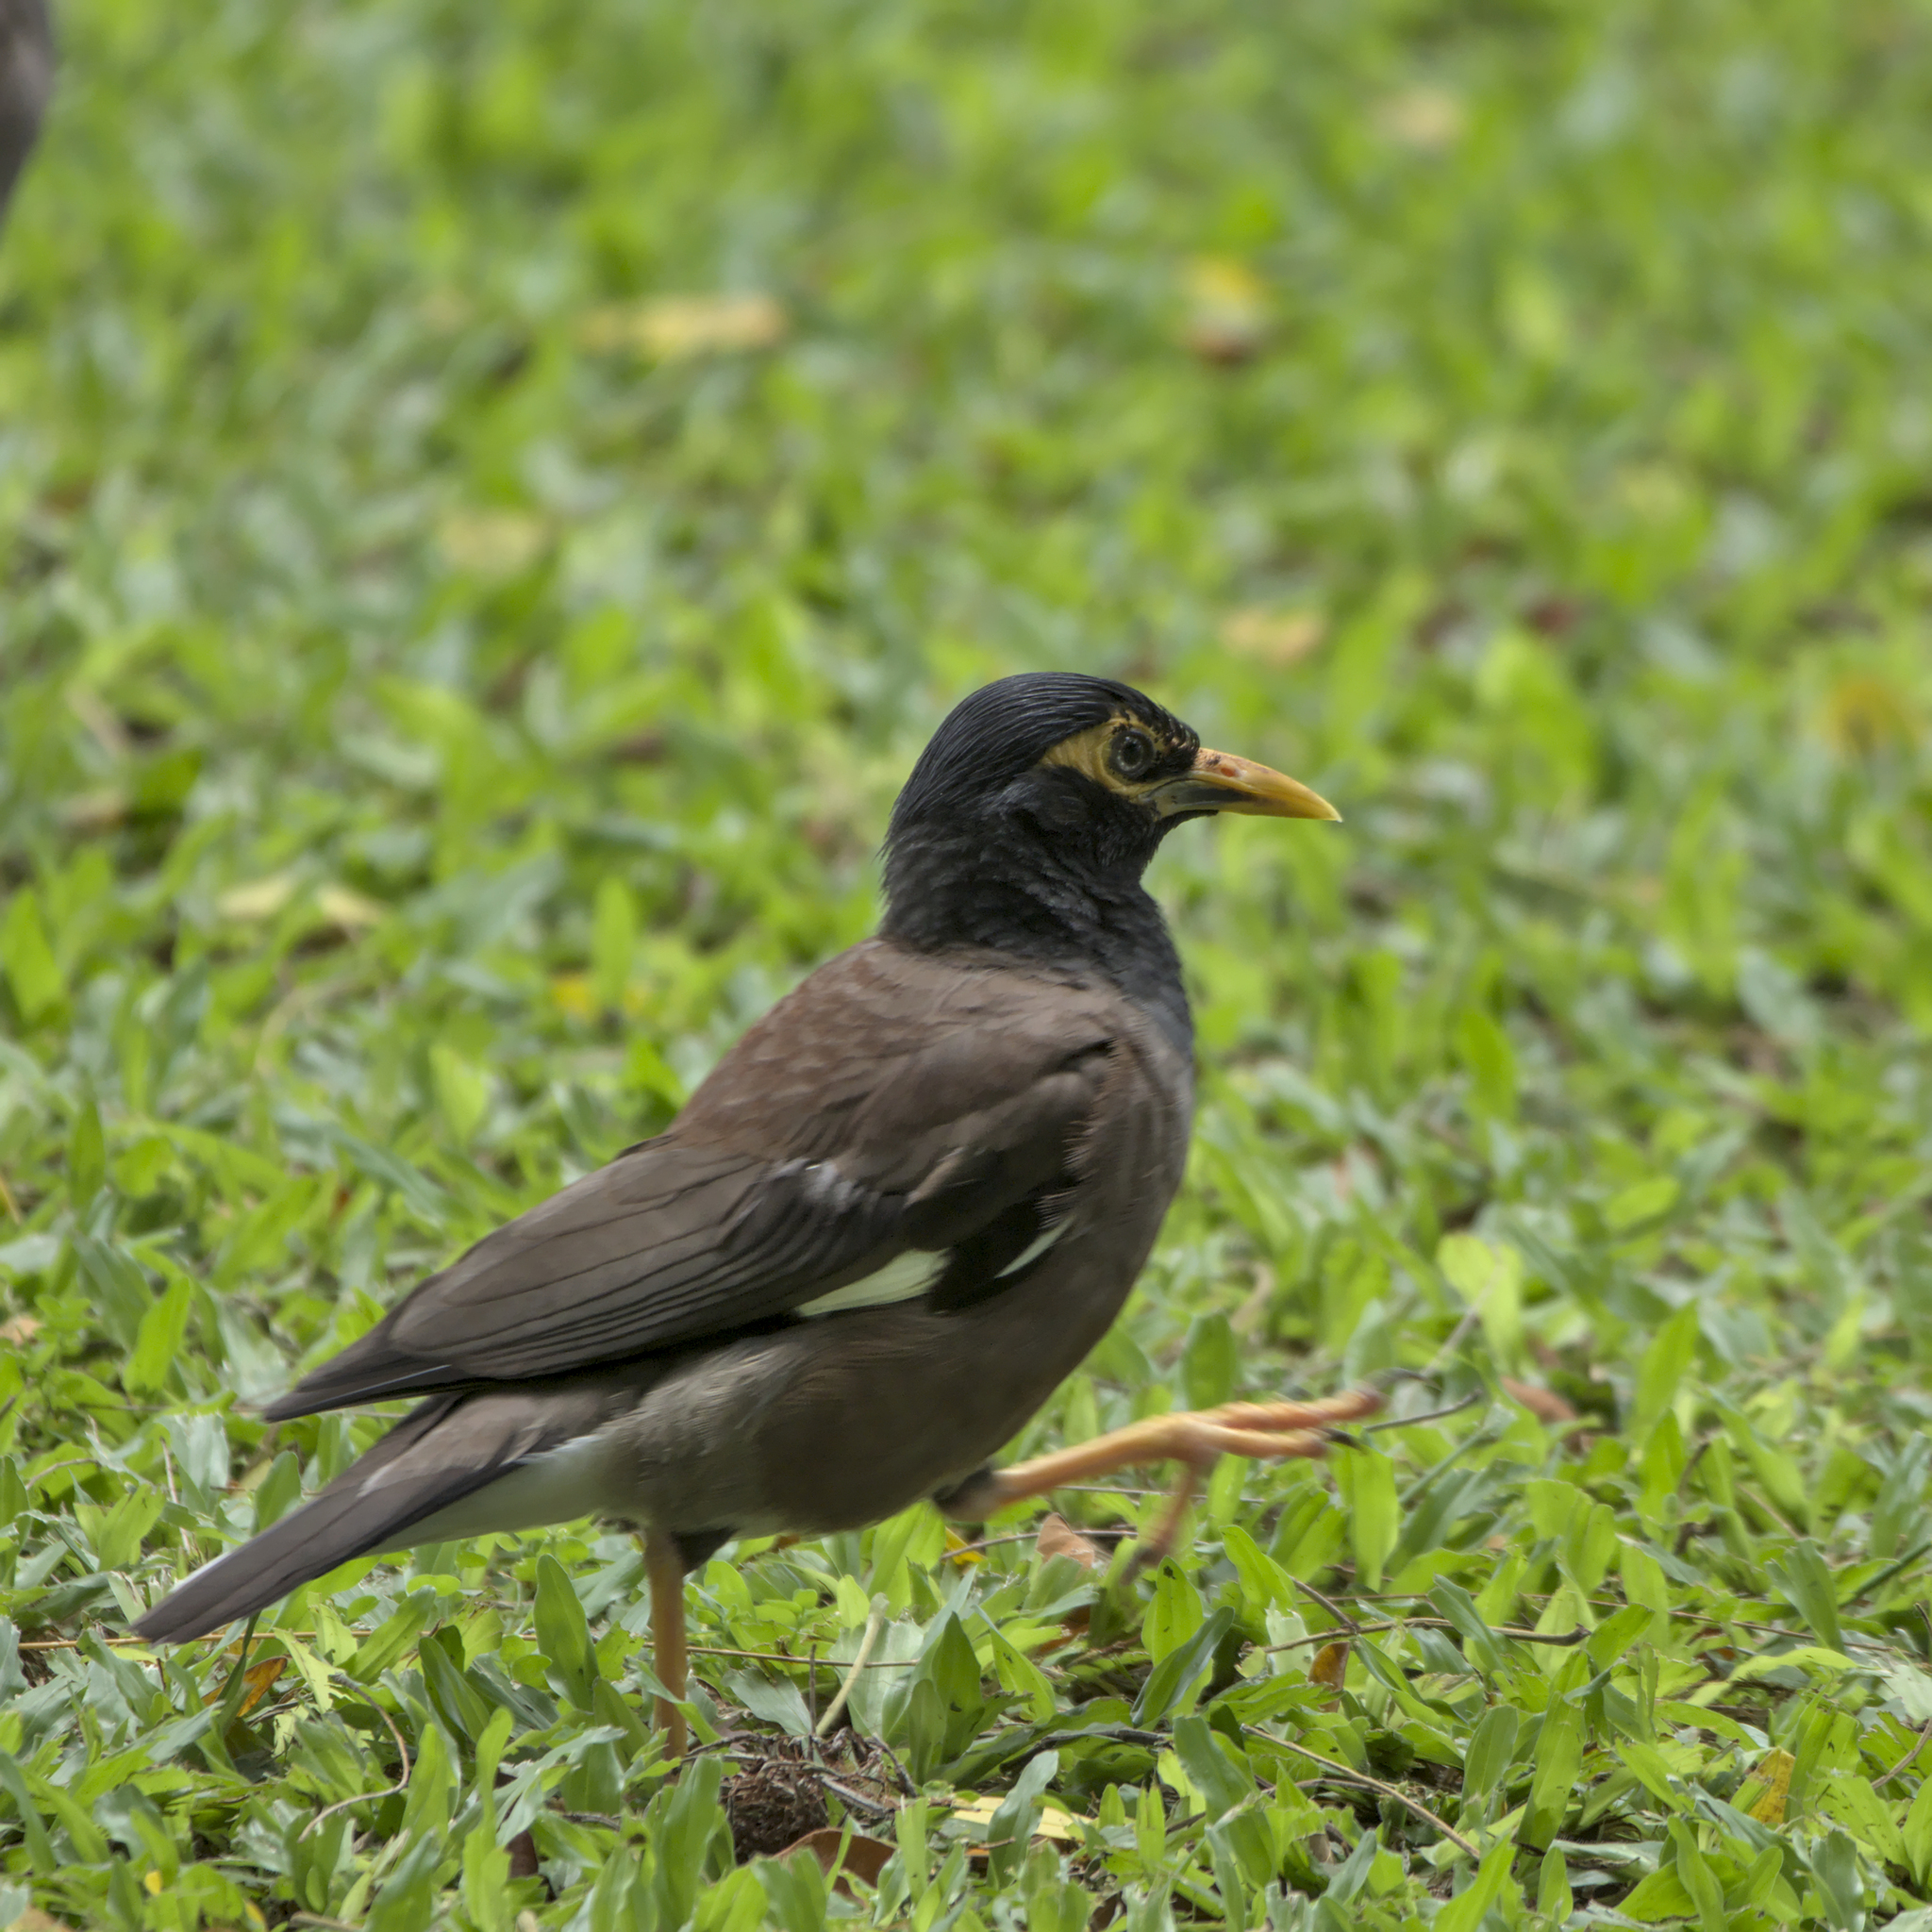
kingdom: Animalia
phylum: Chordata
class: Aves
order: Passeriformes
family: Sturnidae
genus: Acridotheres
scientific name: Acridotheres tristis
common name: Common myna
